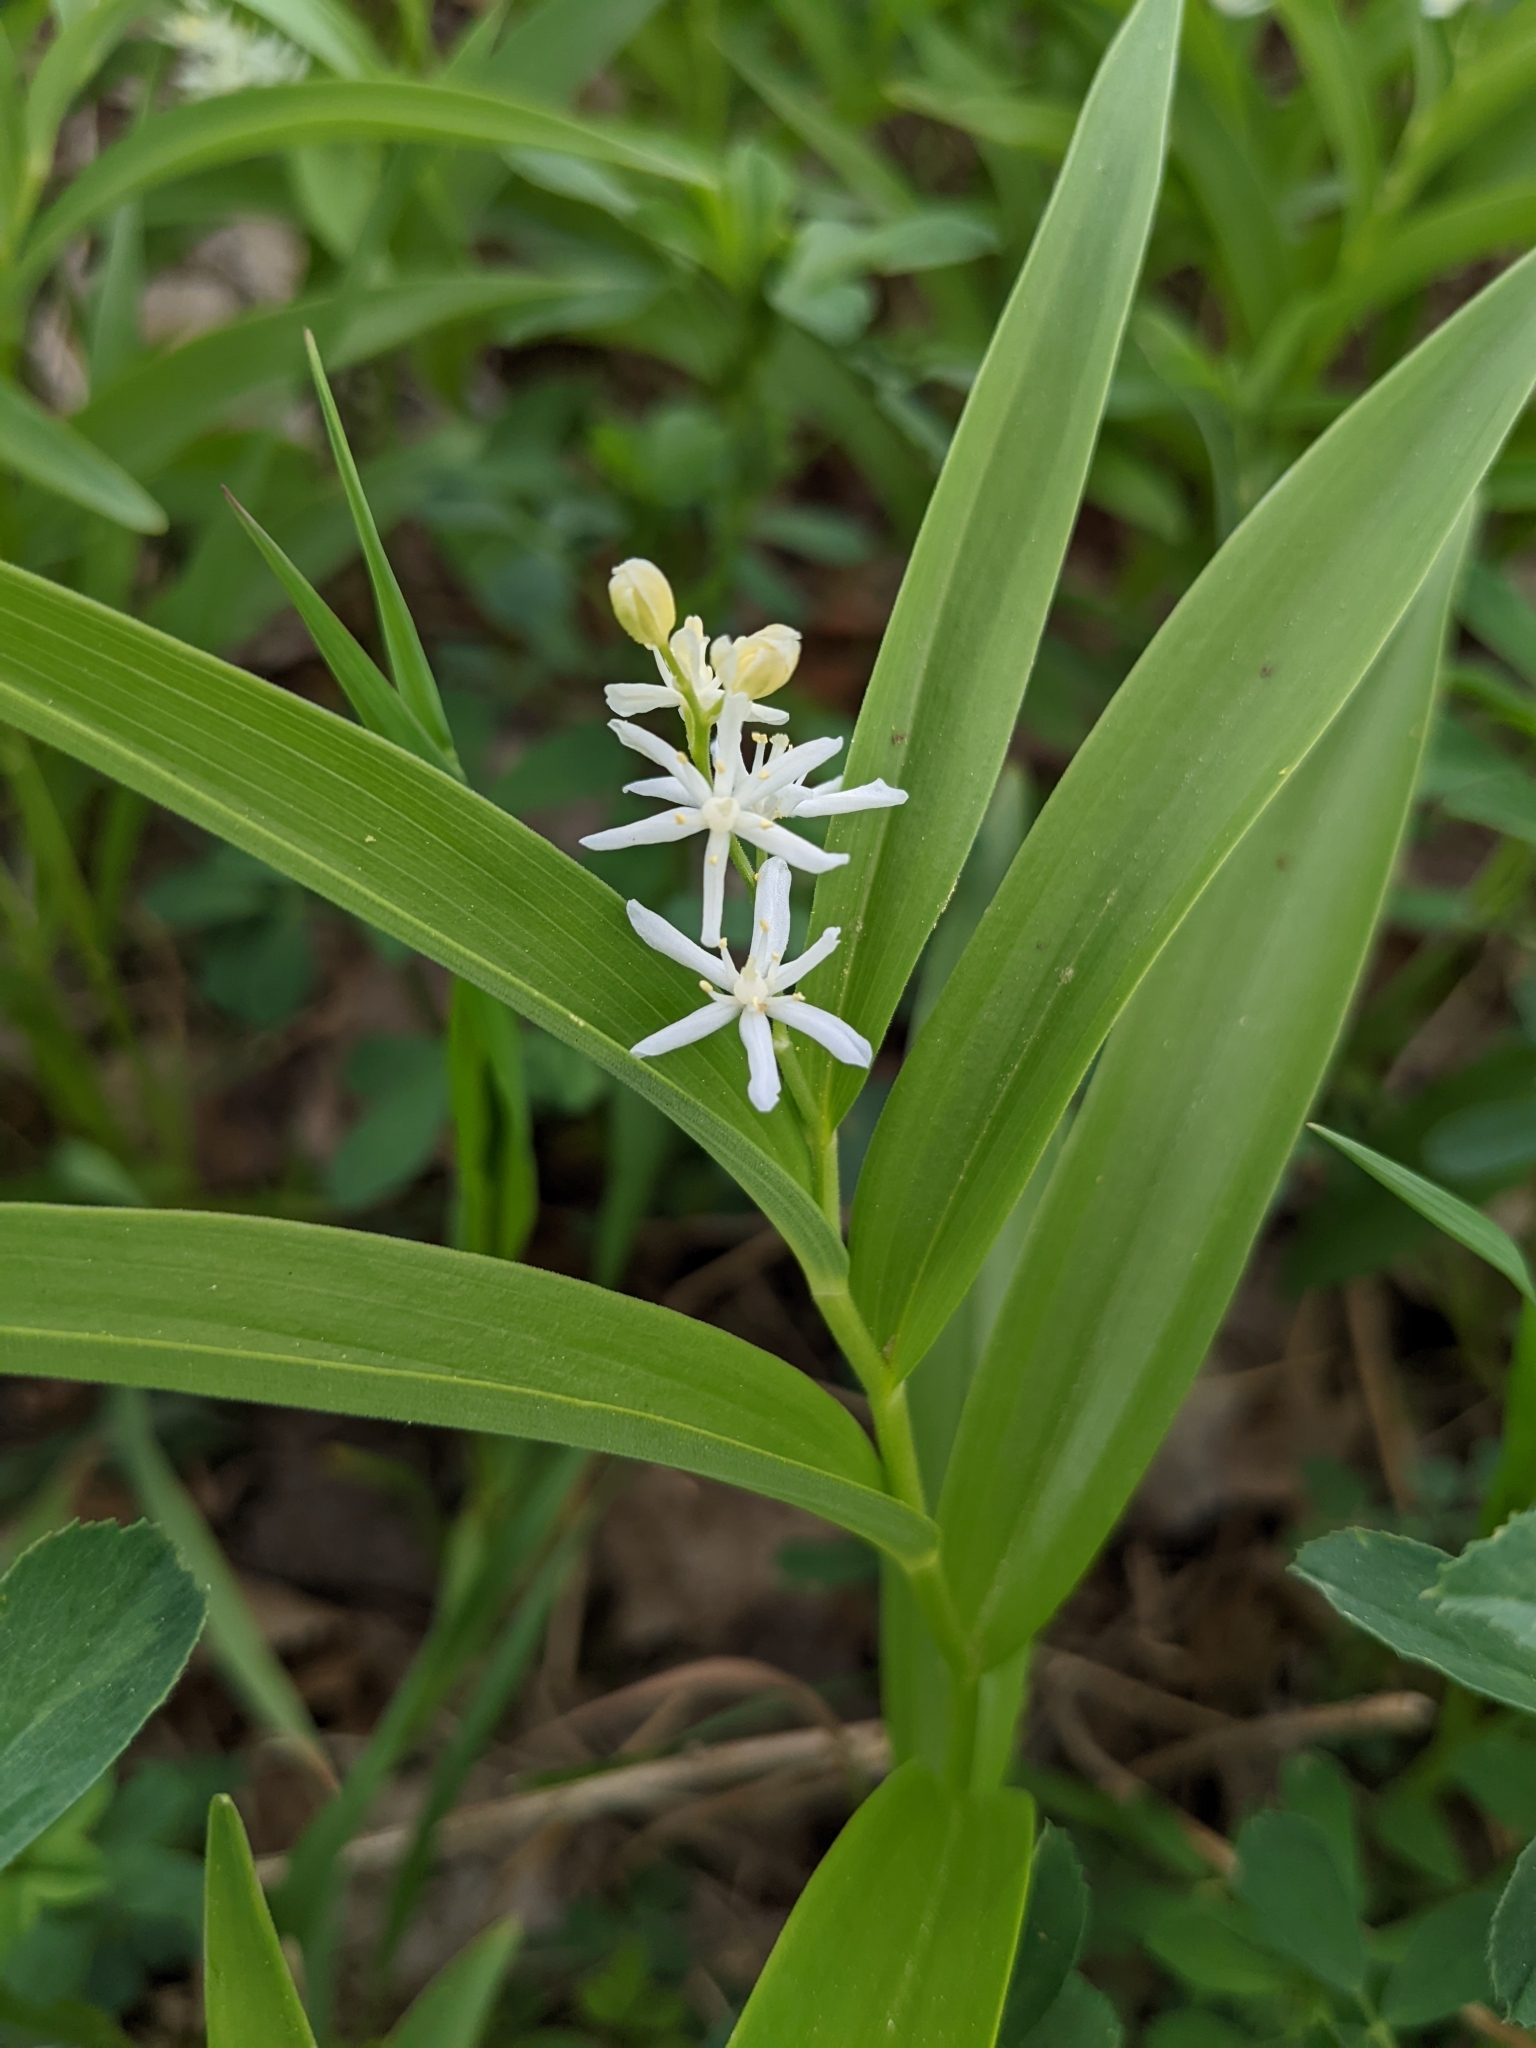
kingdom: Plantae
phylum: Tracheophyta
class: Liliopsida
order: Asparagales
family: Asparagaceae
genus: Maianthemum
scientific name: Maianthemum stellatum
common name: Little false solomon's seal
